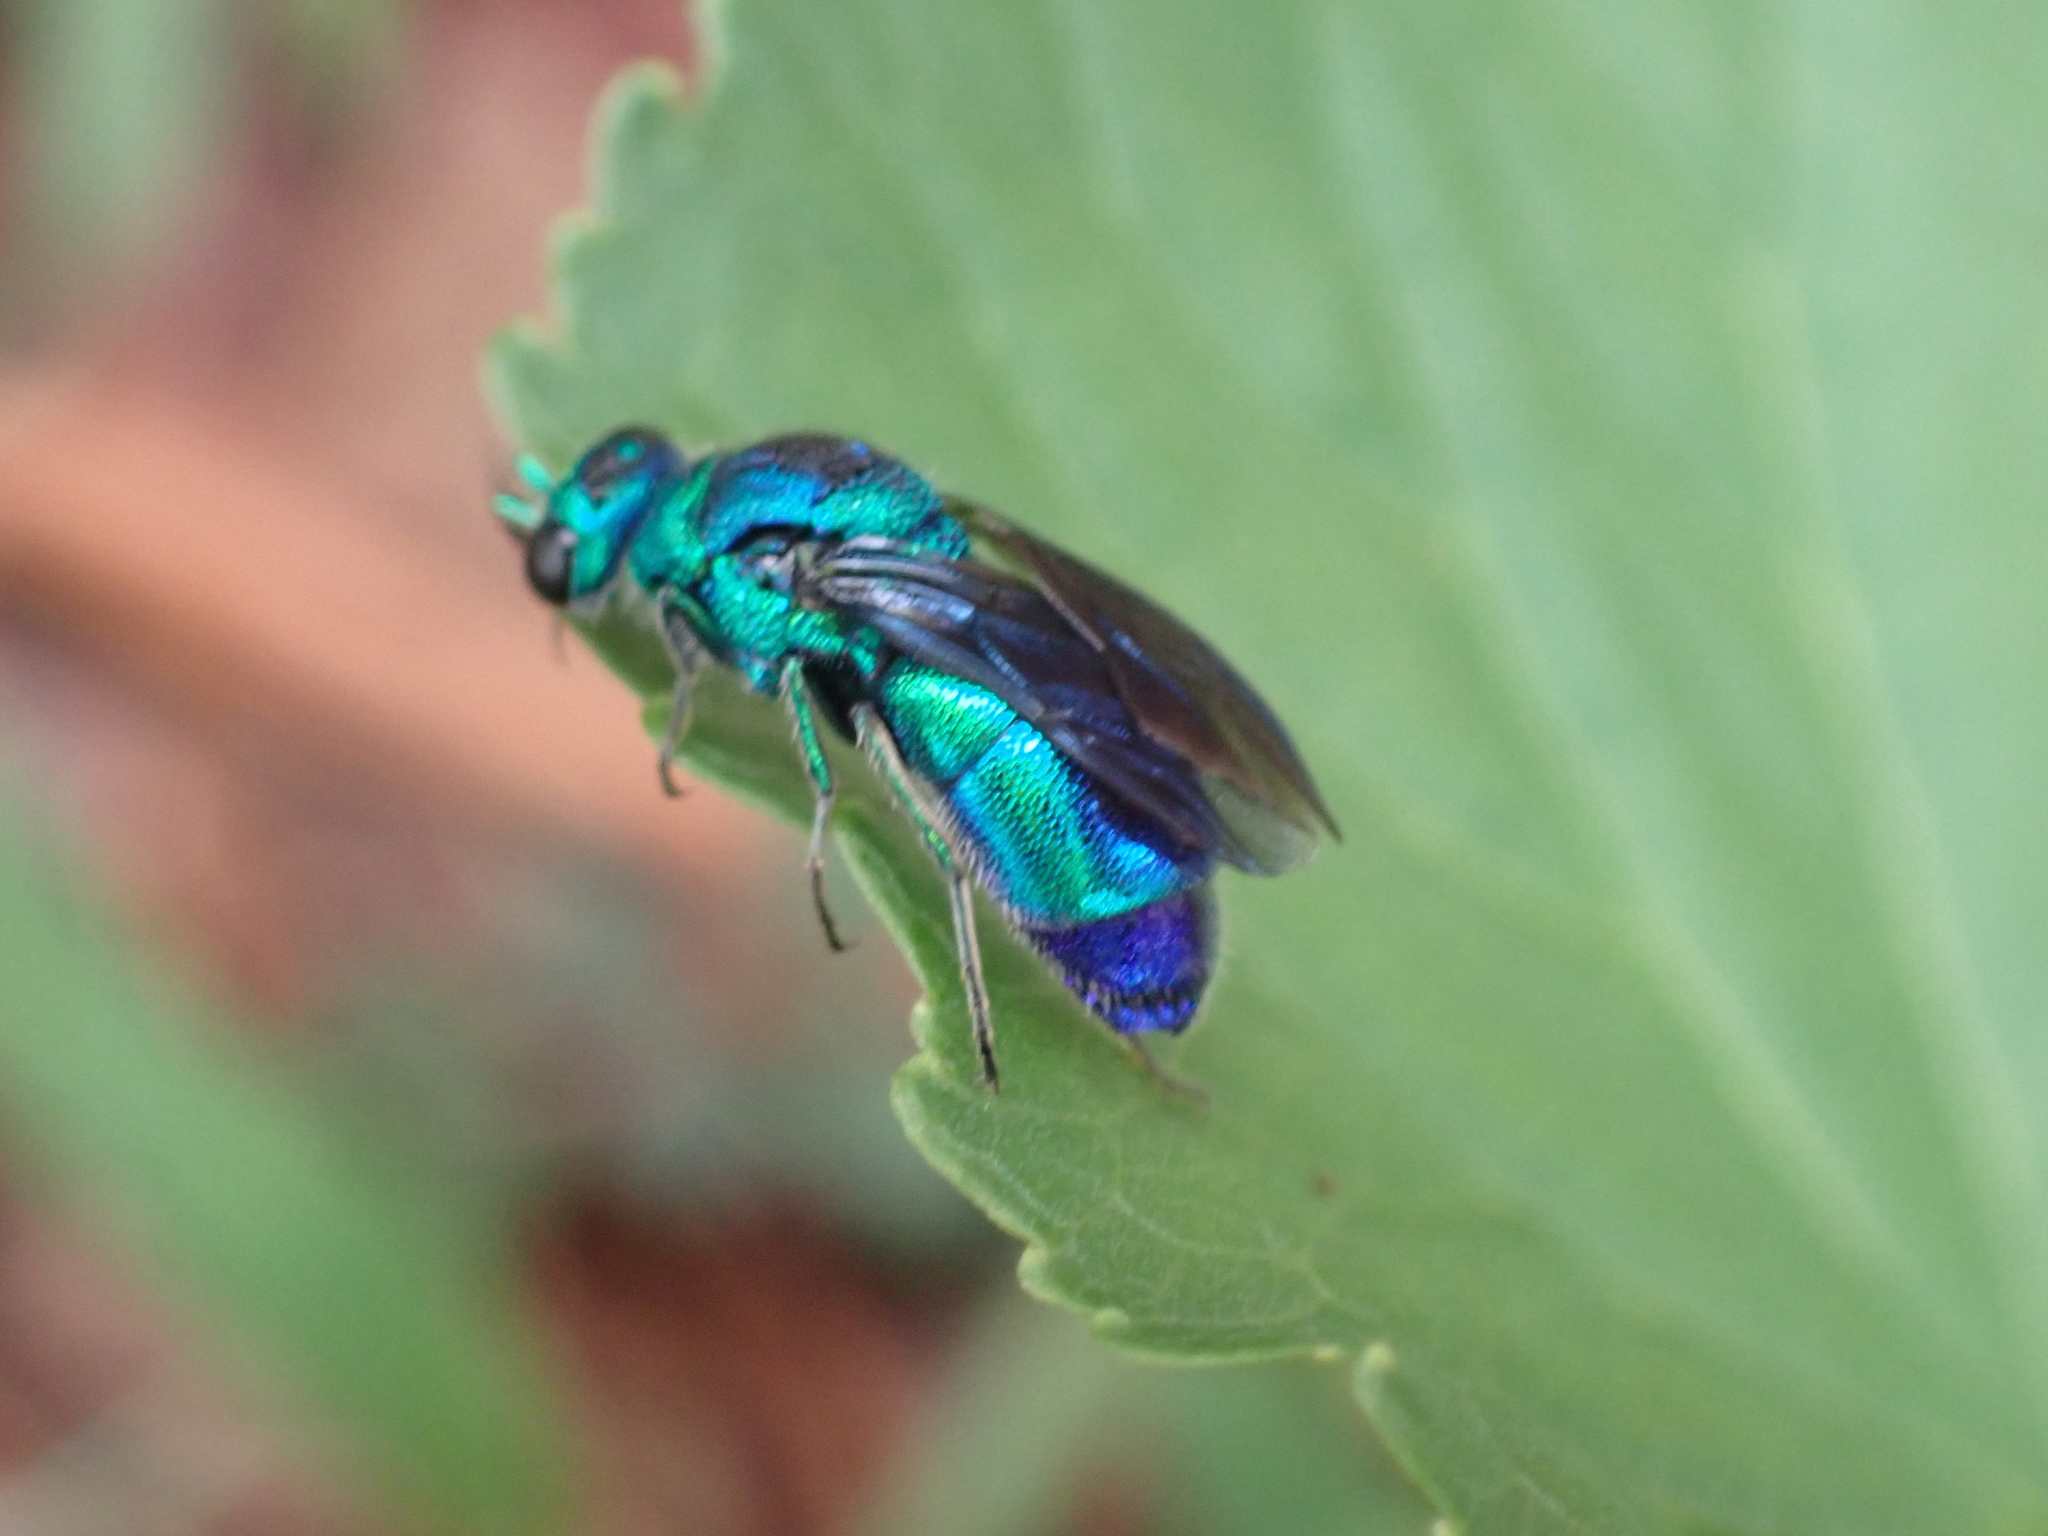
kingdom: Animalia
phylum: Arthropoda
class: Insecta
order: Hymenoptera
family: Chrysididae
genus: Chrysis
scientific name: Chrysis angolensis
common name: Cuckoo wasp
